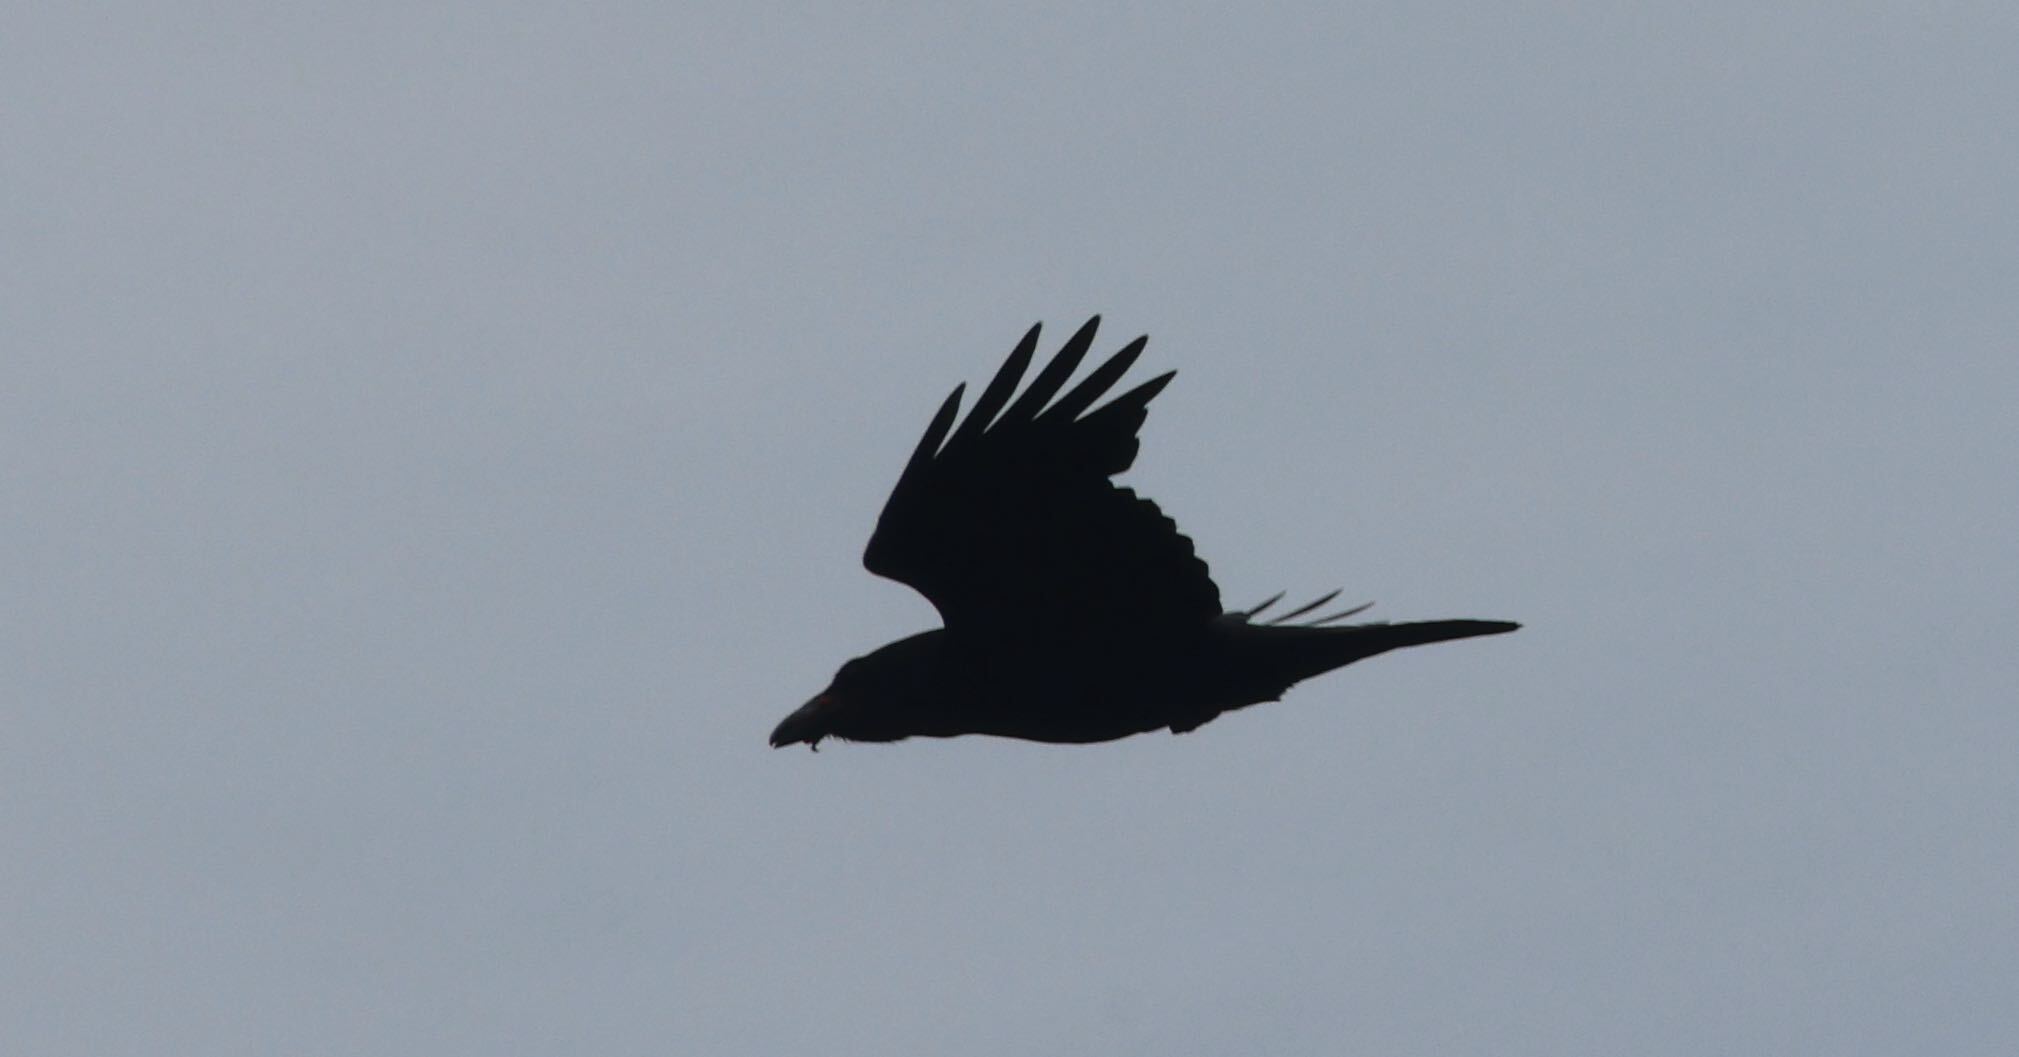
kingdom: Animalia
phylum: Chordata
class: Aves
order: Passeriformes
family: Corvidae
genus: Corvus
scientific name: Corvus corax
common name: Common raven
